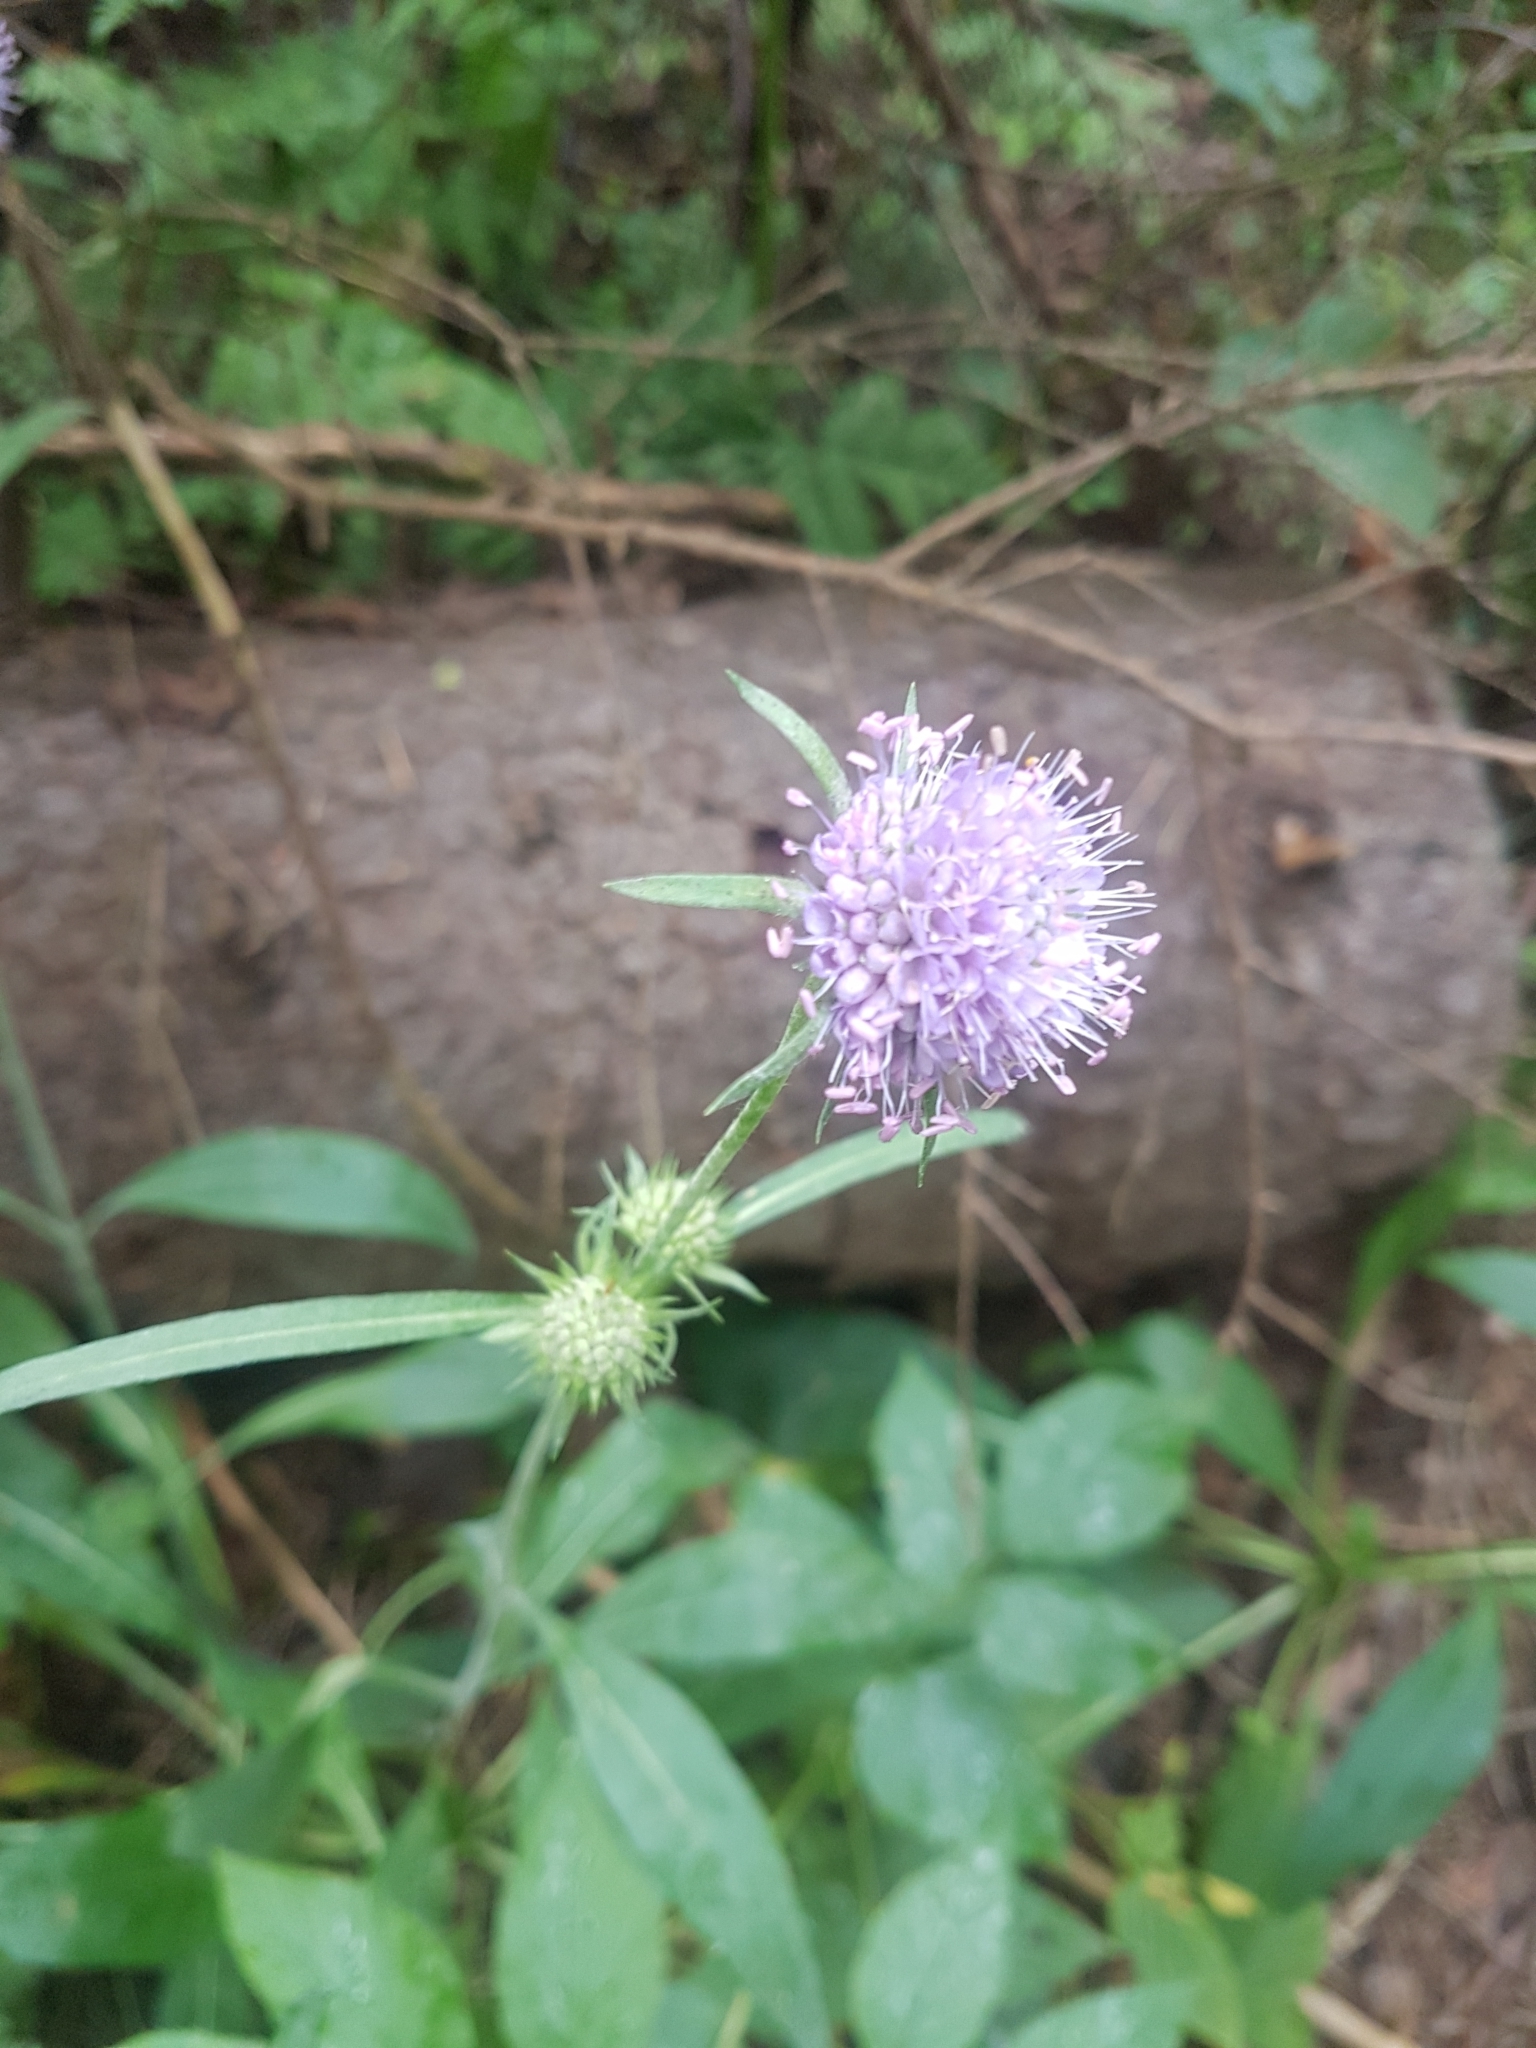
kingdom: Plantae
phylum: Tracheophyta
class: Magnoliopsida
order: Dipsacales
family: Caprifoliaceae
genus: Succisa
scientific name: Succisa pratensis
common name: Devil's-bit
